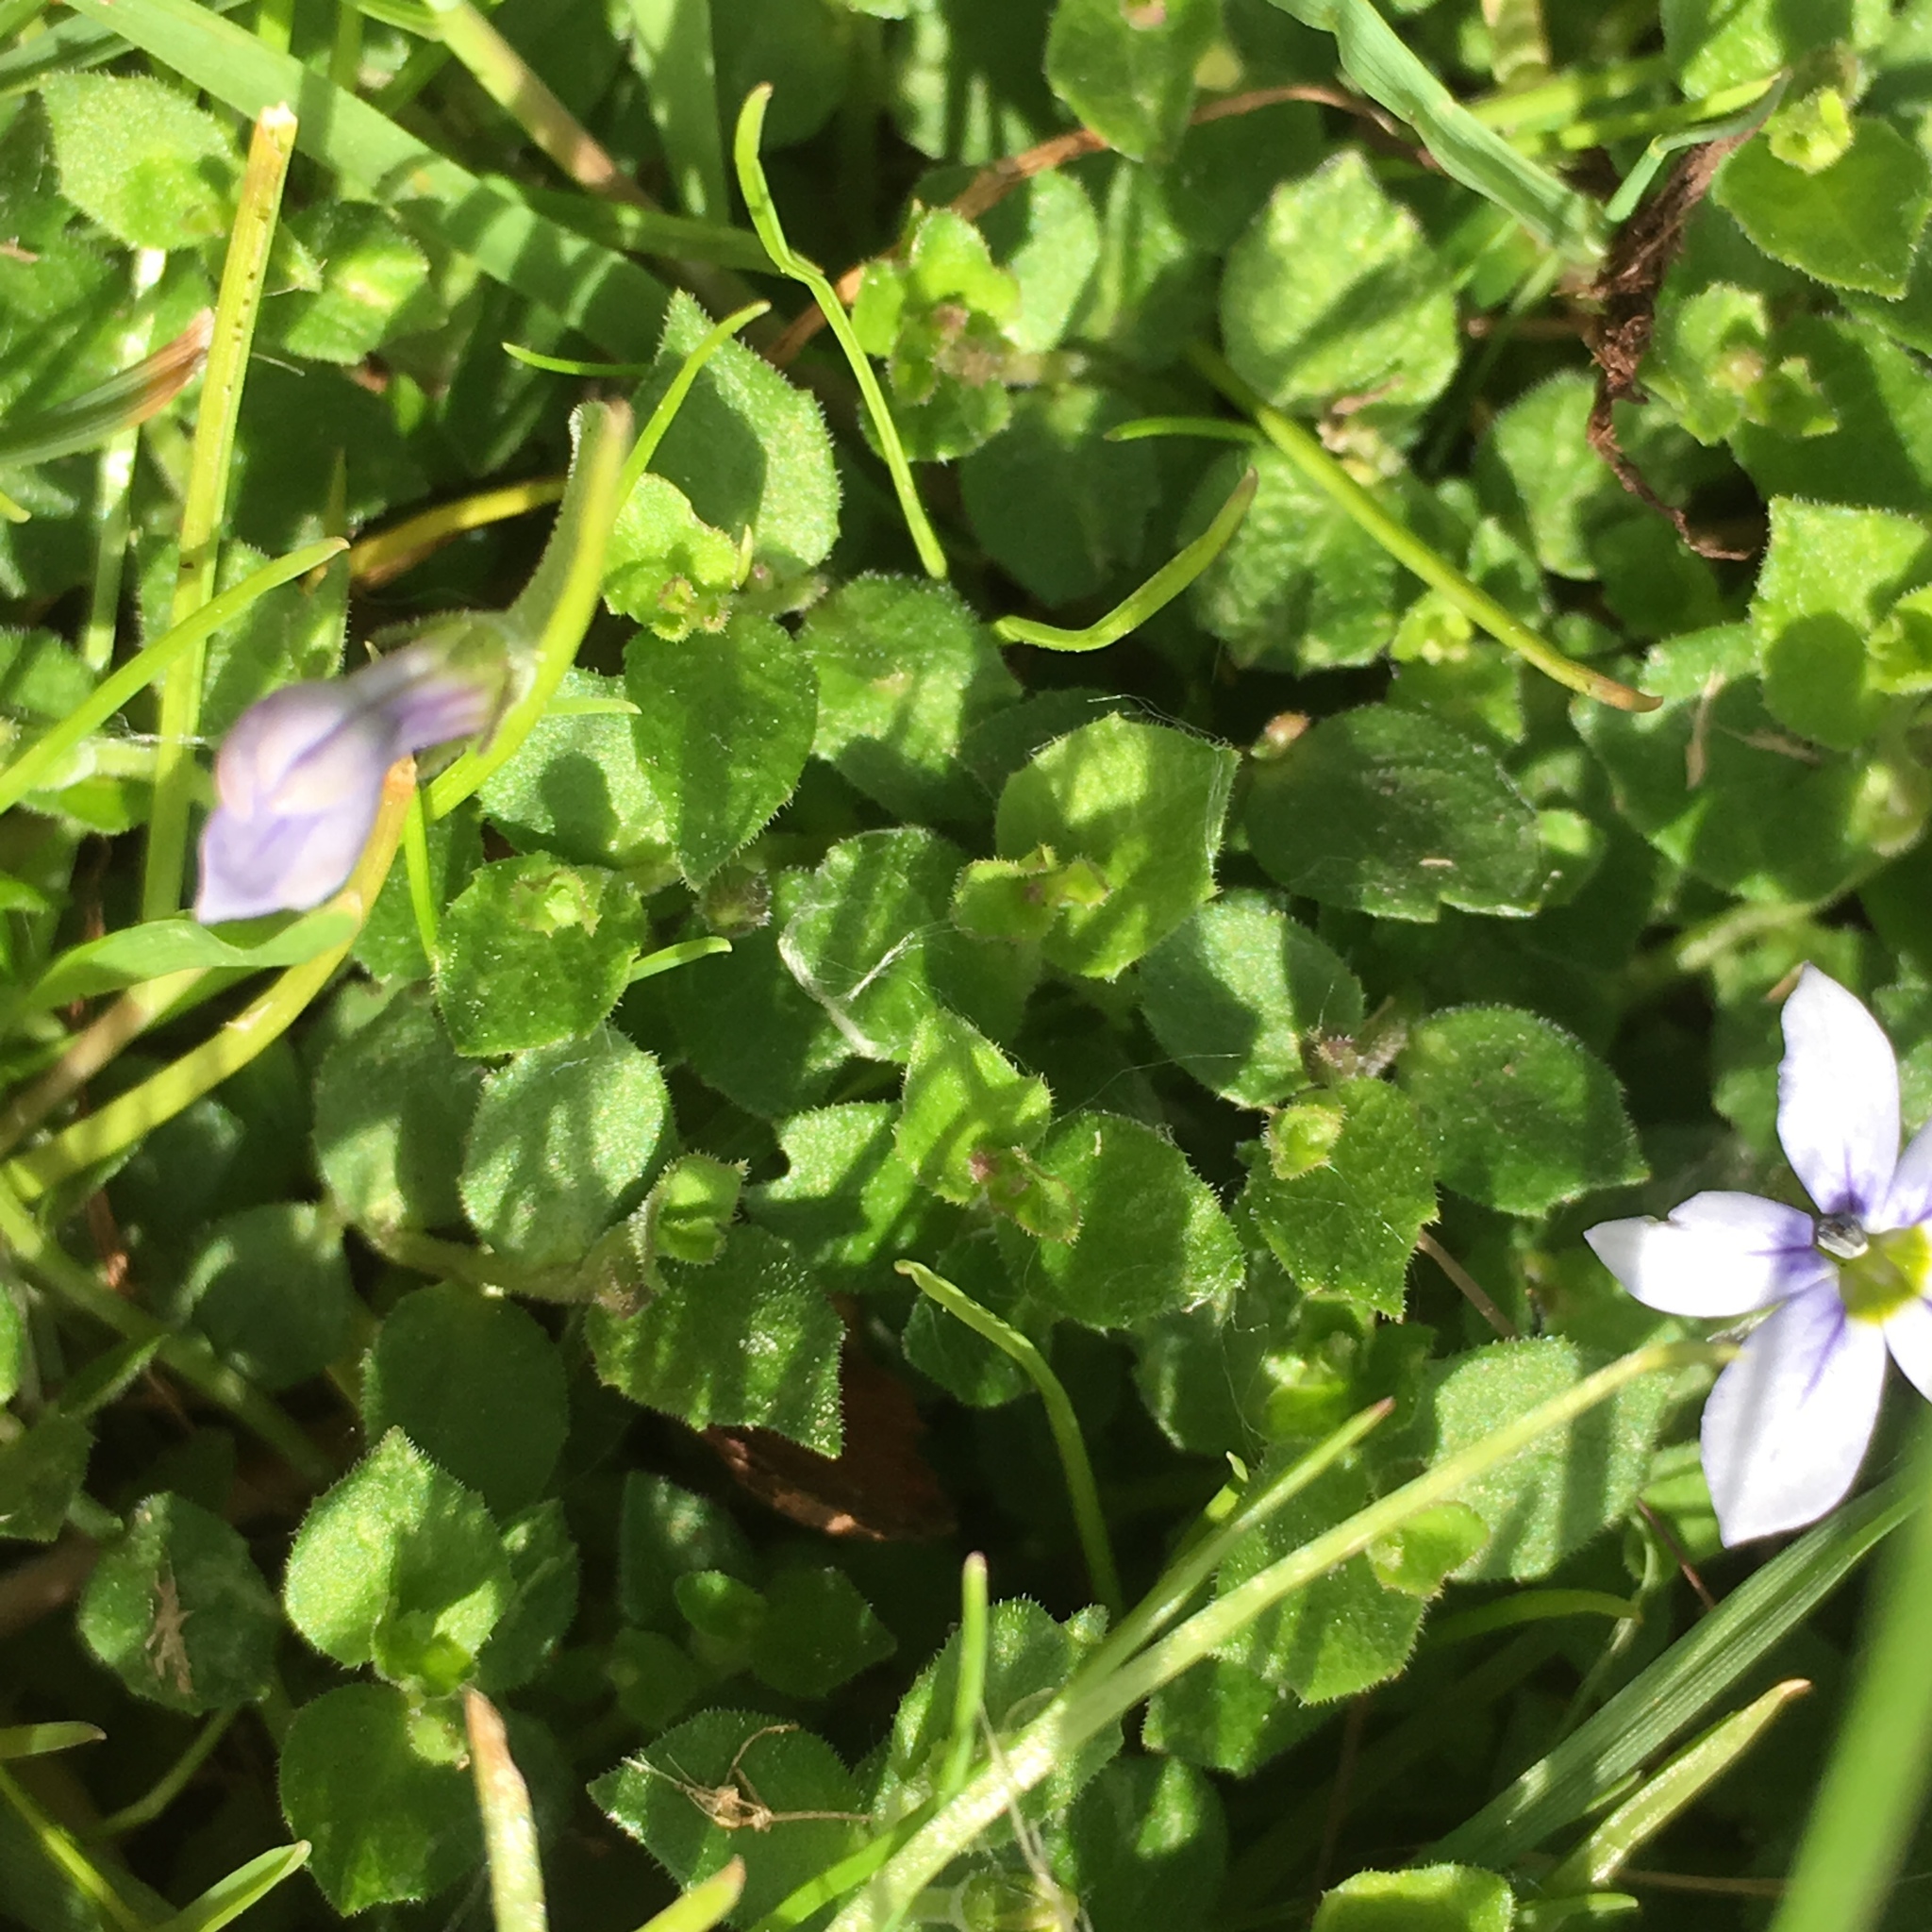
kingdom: Plantae
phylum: Tracheophyta
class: Magnoliopsida
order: Asterales
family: Campanulaceae
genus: Lobelia
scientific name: Lobelia pedunculata
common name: Matted pratia
